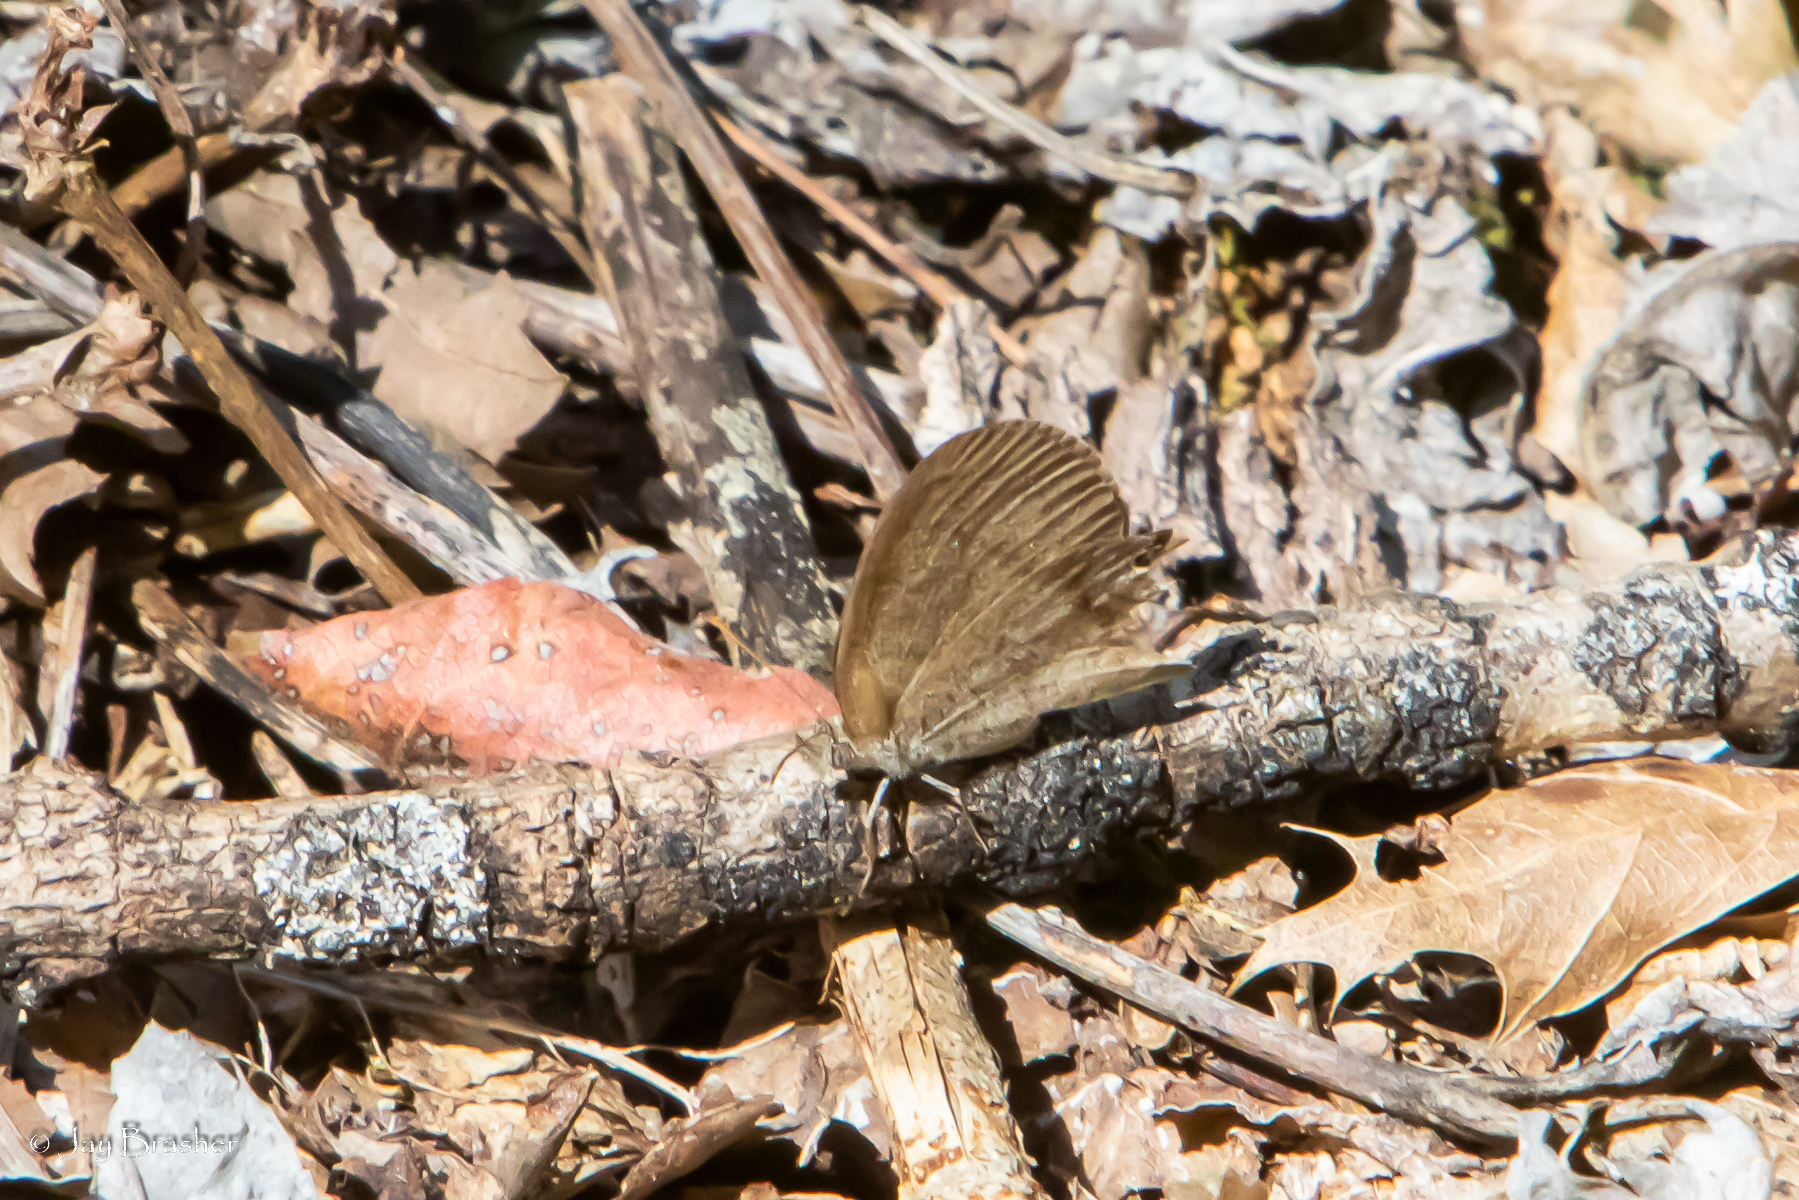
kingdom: Animalia
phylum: Arthropoda
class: Insecta
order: Lepidoptera
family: Nymphalidae
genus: Euptychia
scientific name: Euptychia cornelius
